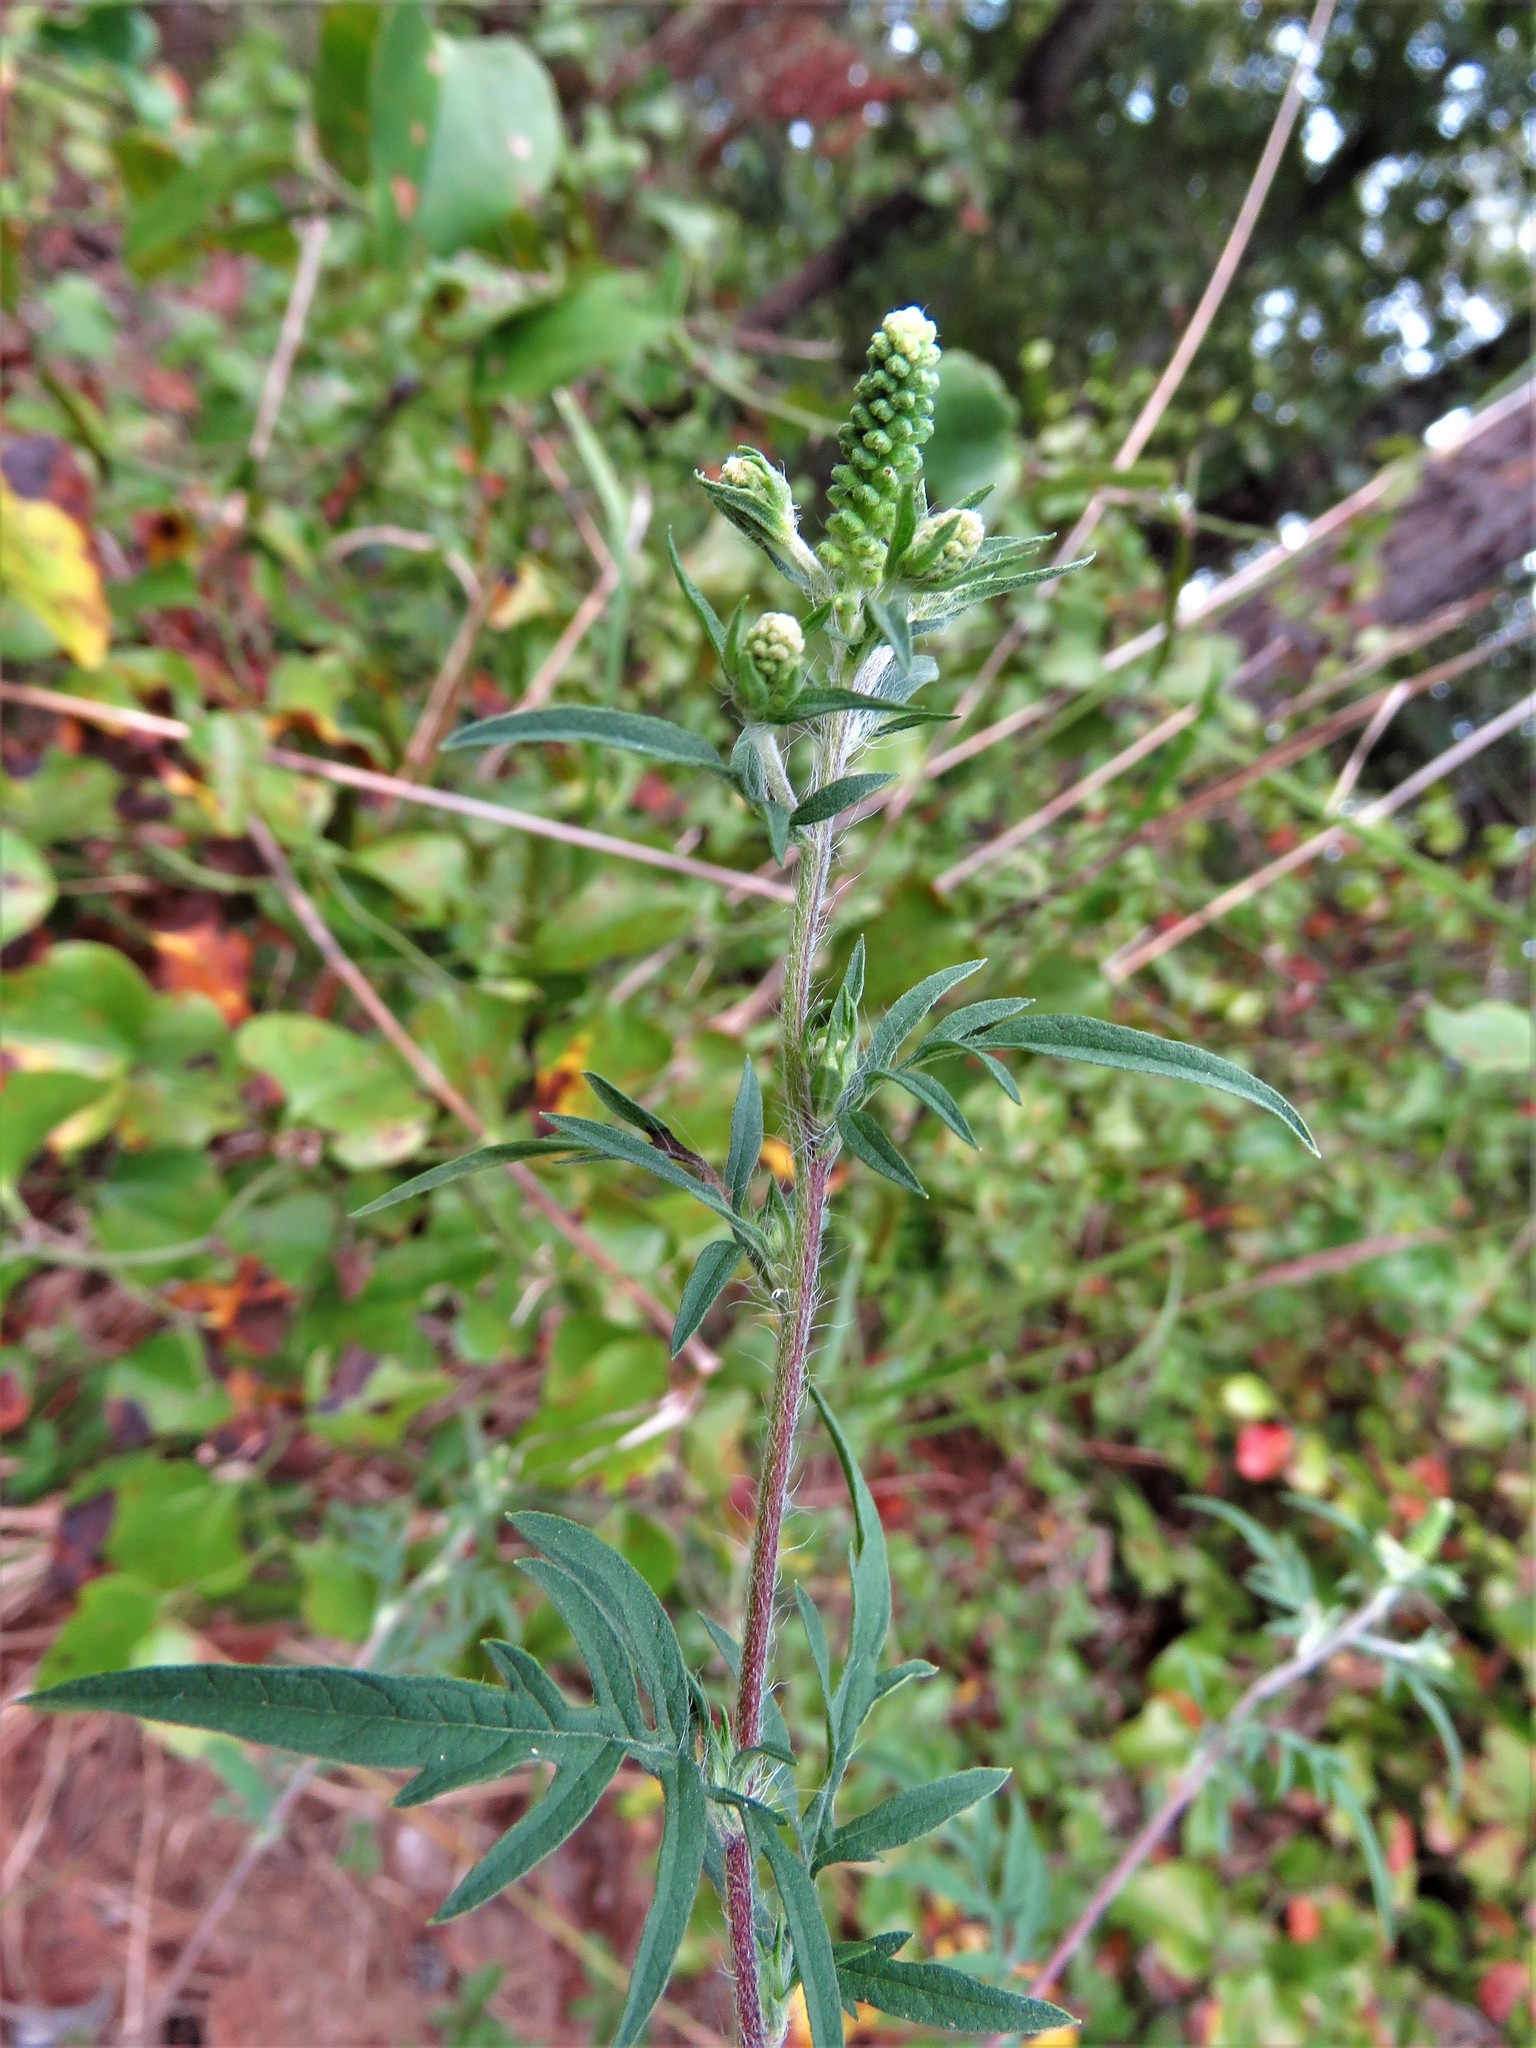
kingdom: Plantae
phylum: Tracheophyta
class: Magnoliopsida
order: Asterales
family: Asteraceae
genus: Ambrosia
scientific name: Ambrosia artemisiifolia
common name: Annual ragweed
